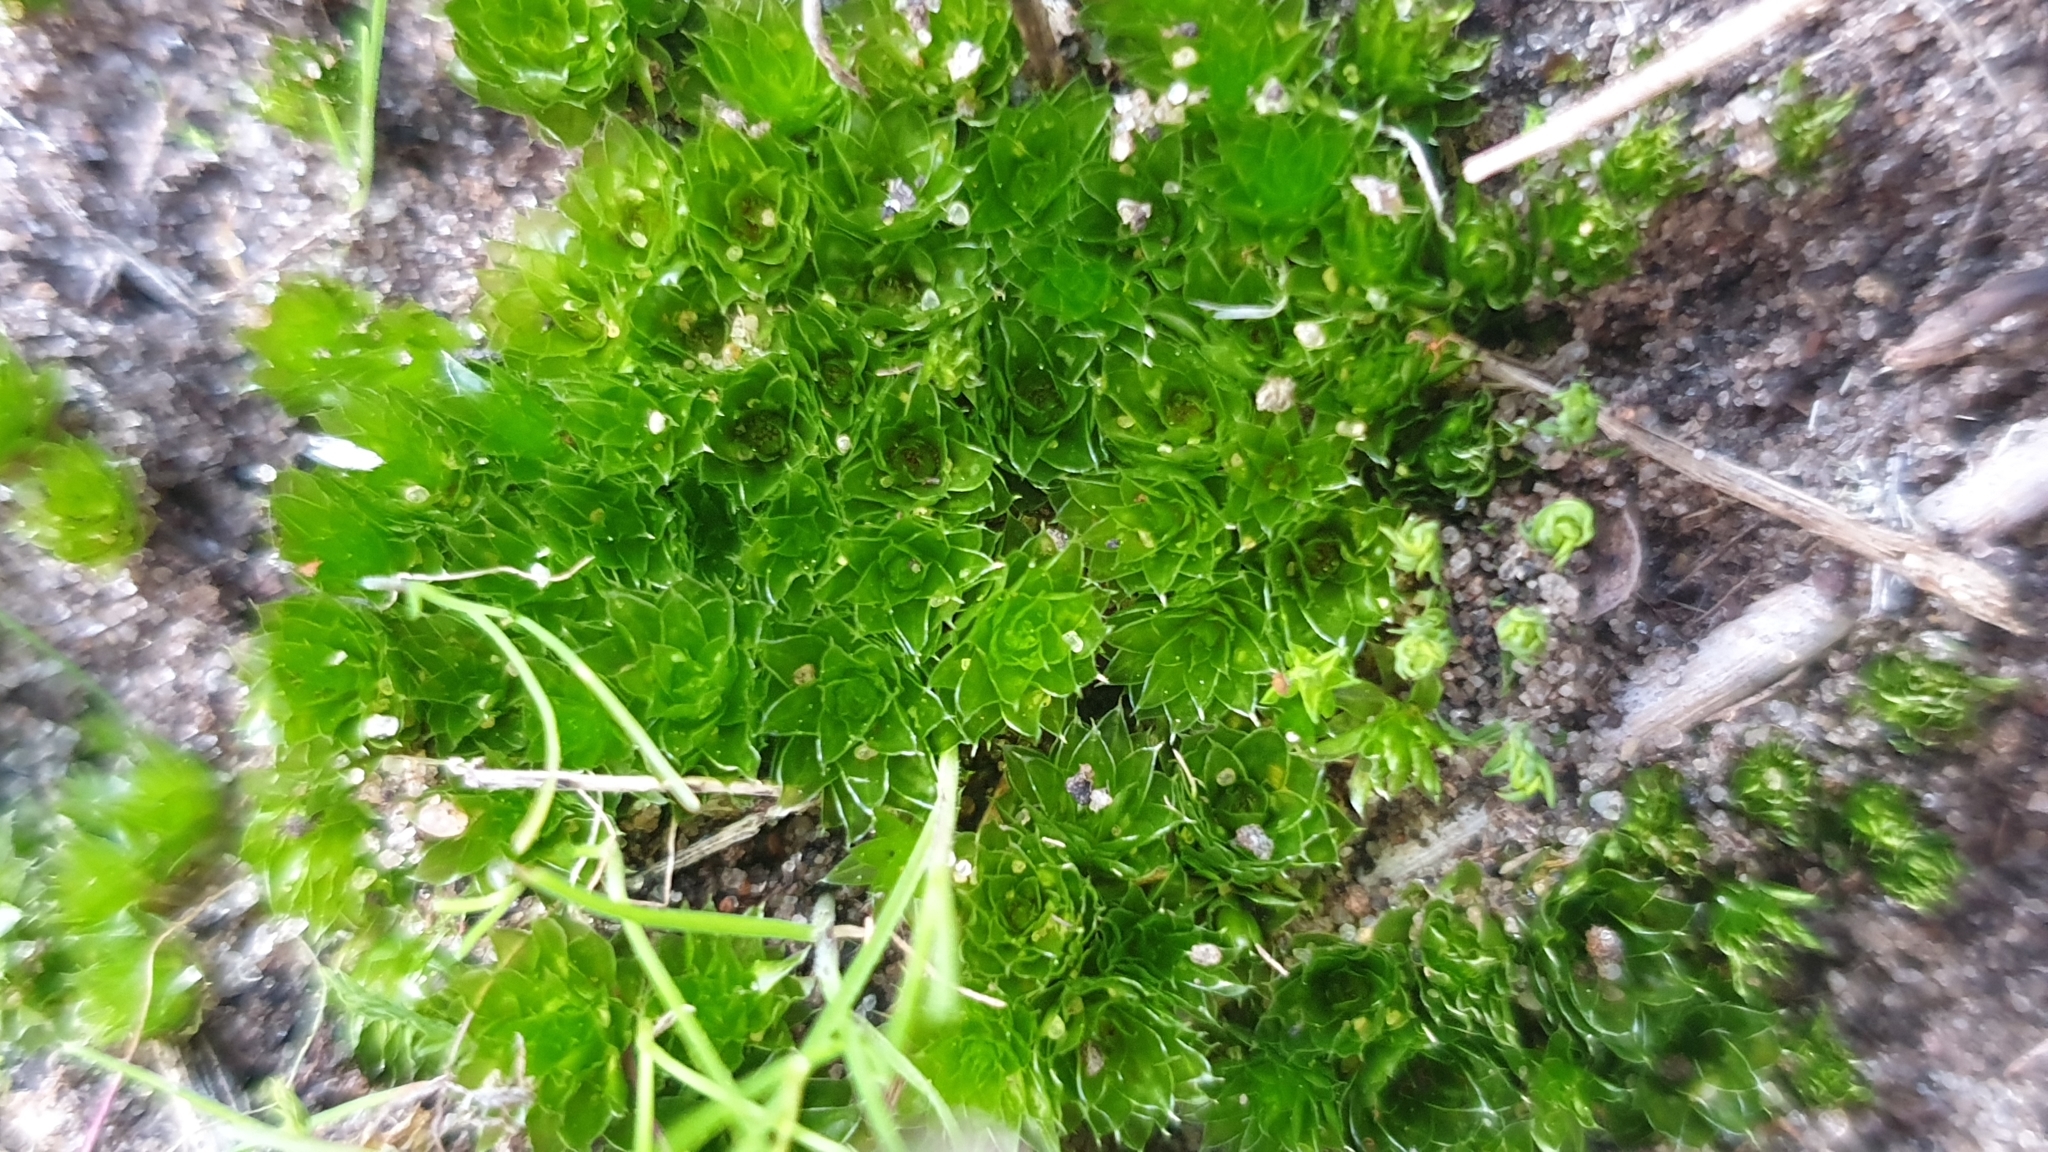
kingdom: Plantae
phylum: Bryophyta
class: Bryopsida
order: Bryales
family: Bryaceae
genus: Rosulabryum
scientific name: Rosulabryum billardierei
